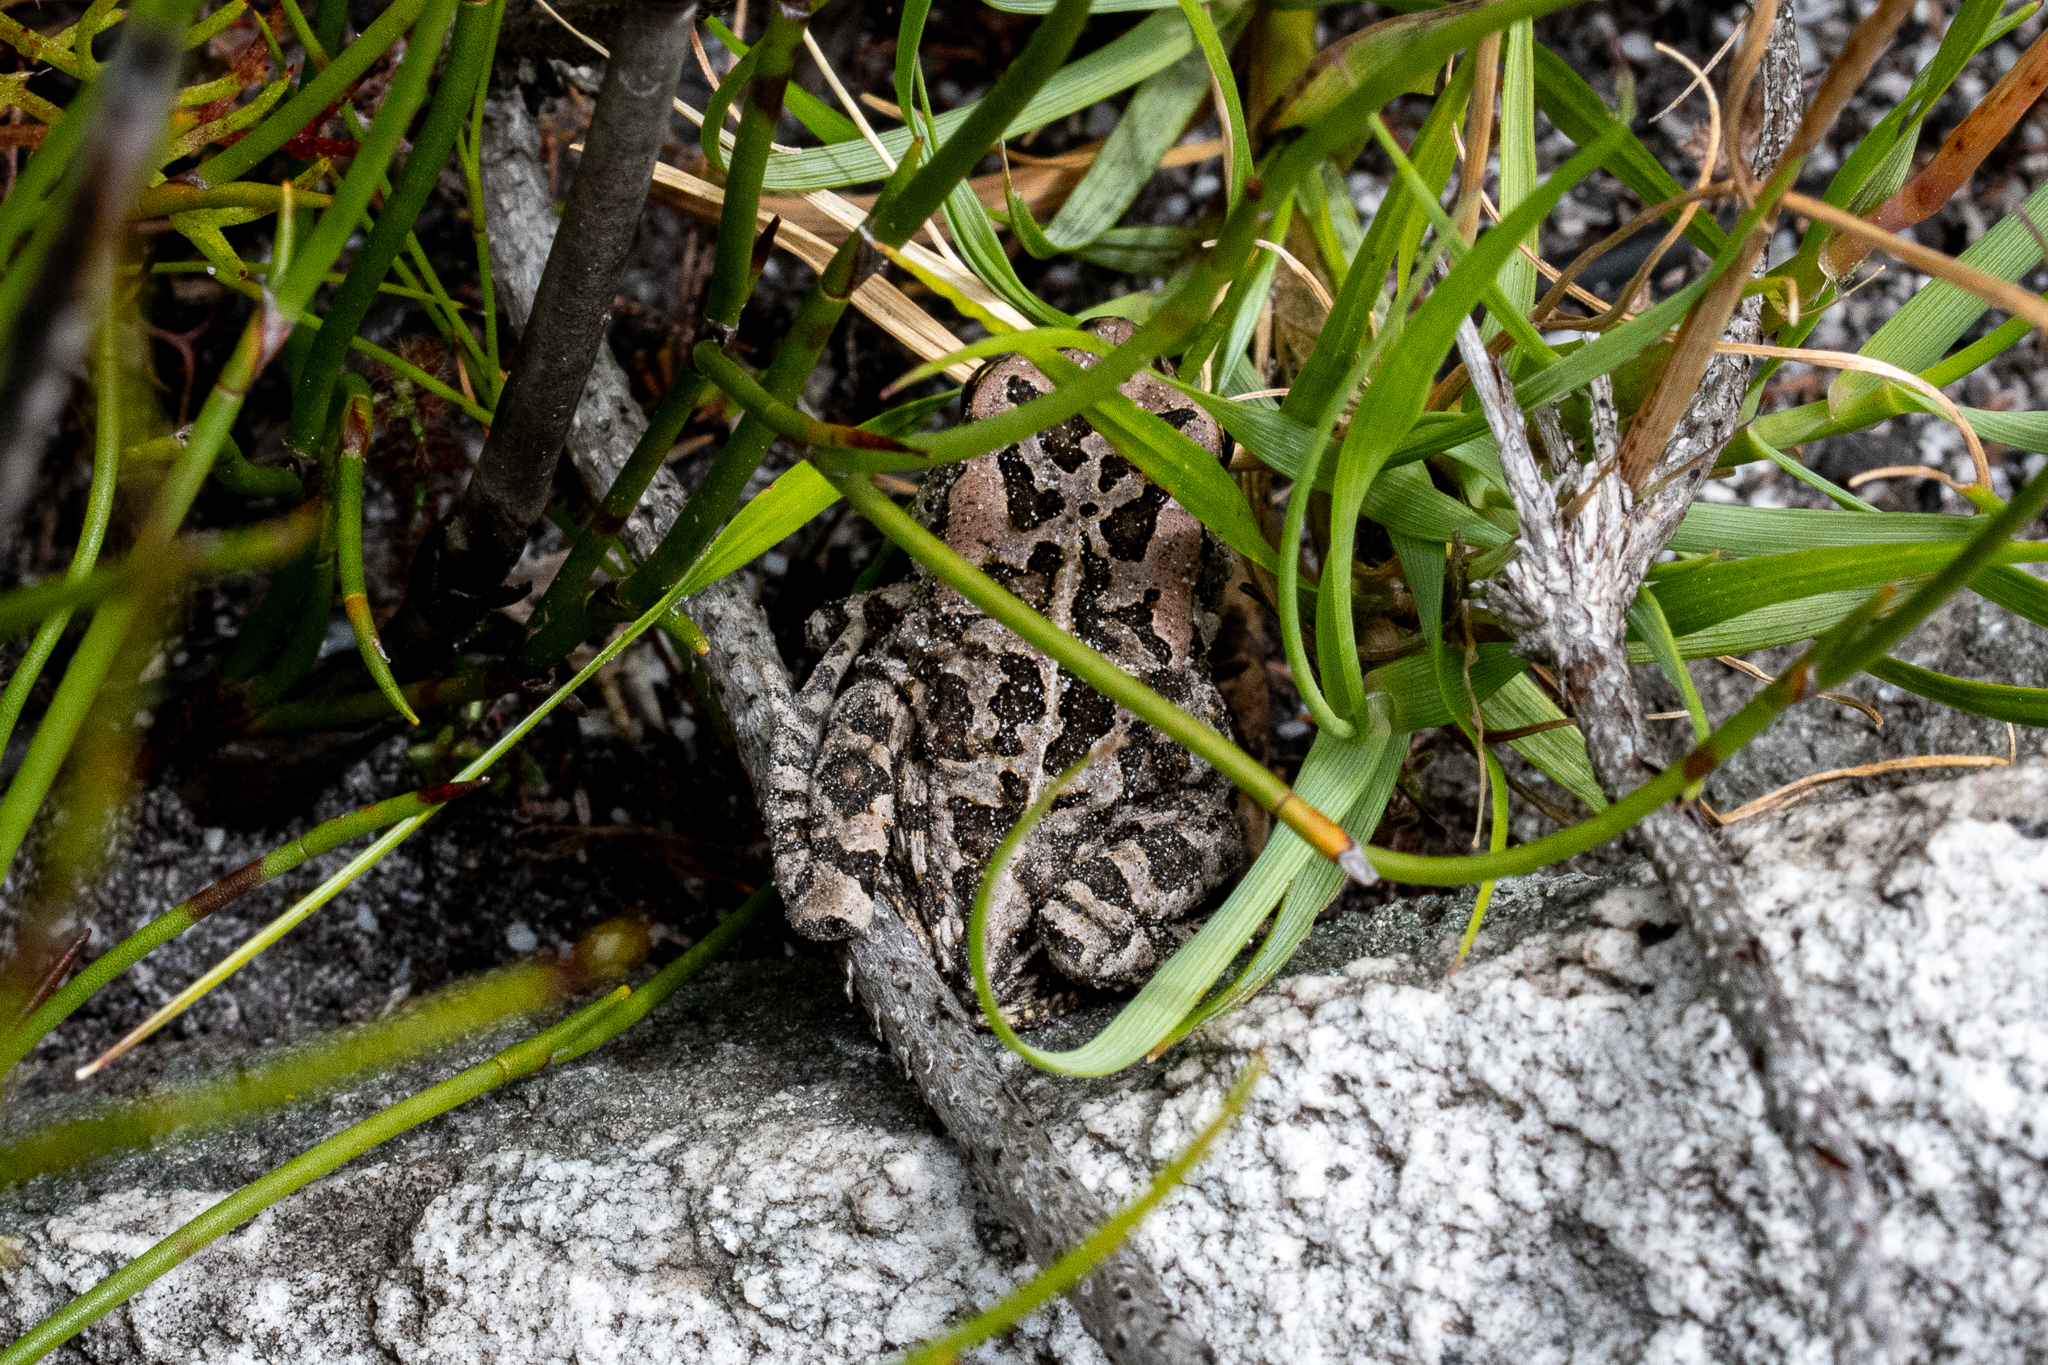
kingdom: Animalia
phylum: Chordata
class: Amphibia
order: Anura
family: Bufonidae
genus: Sclerophrys
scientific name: Sclerophrys capensis
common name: Ranger’s toad
